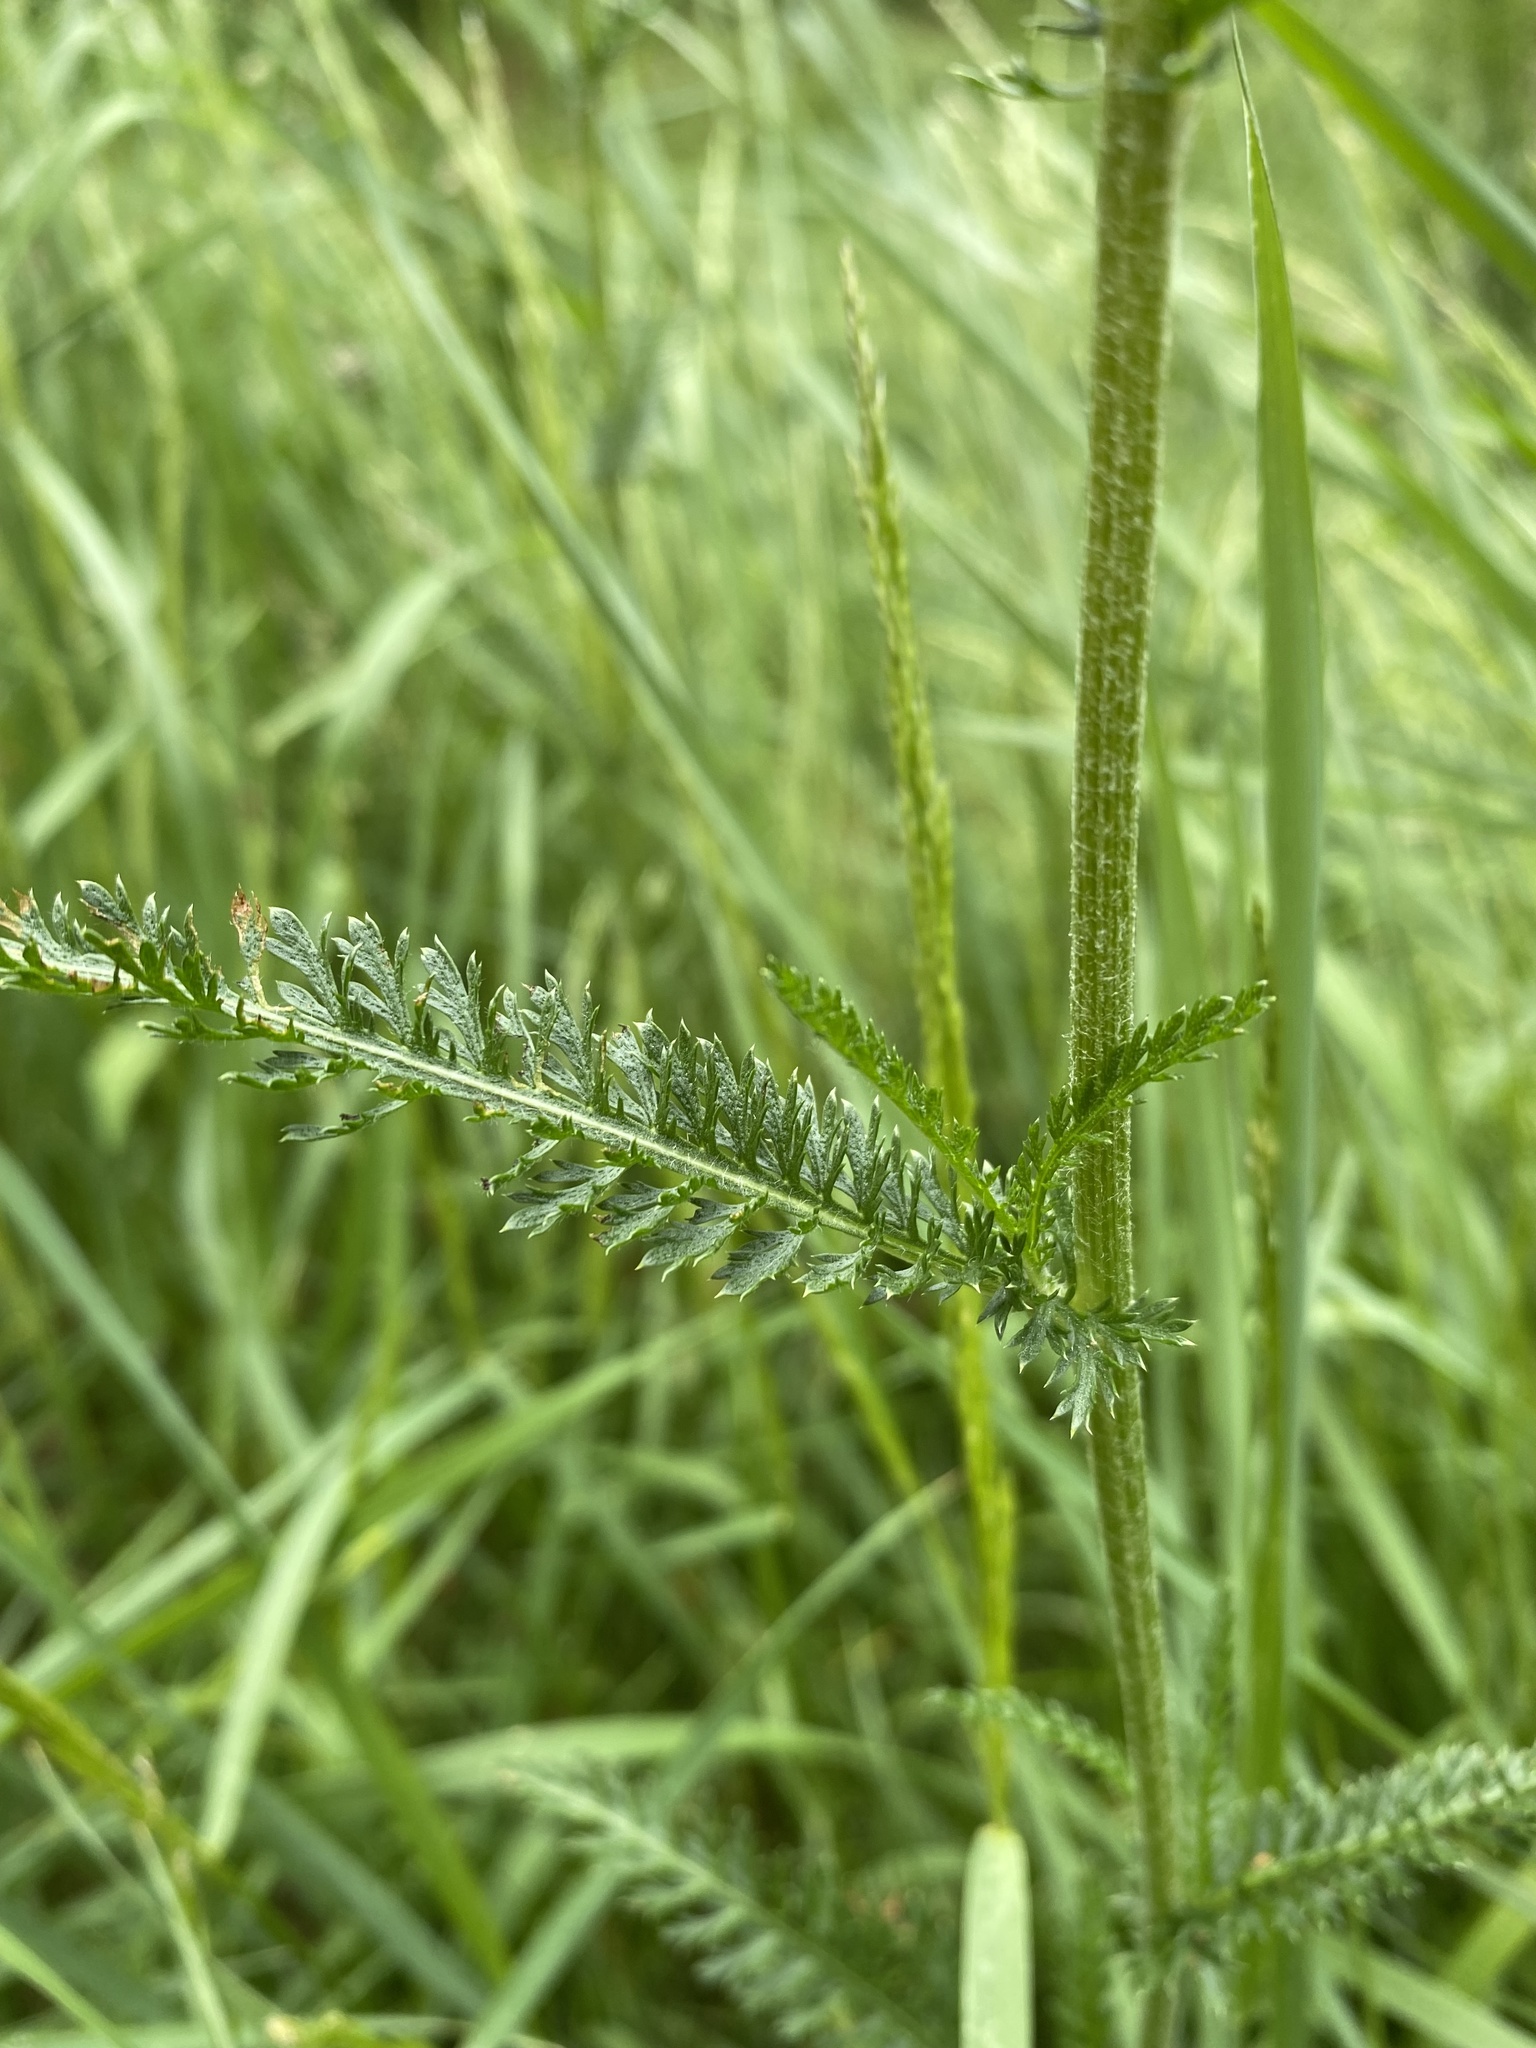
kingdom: Plantae
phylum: Tracheophyta
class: Magnoliopsida
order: Asterales
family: Asteraceae
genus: Achillea
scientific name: Achillea millefolium
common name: Yarrow
